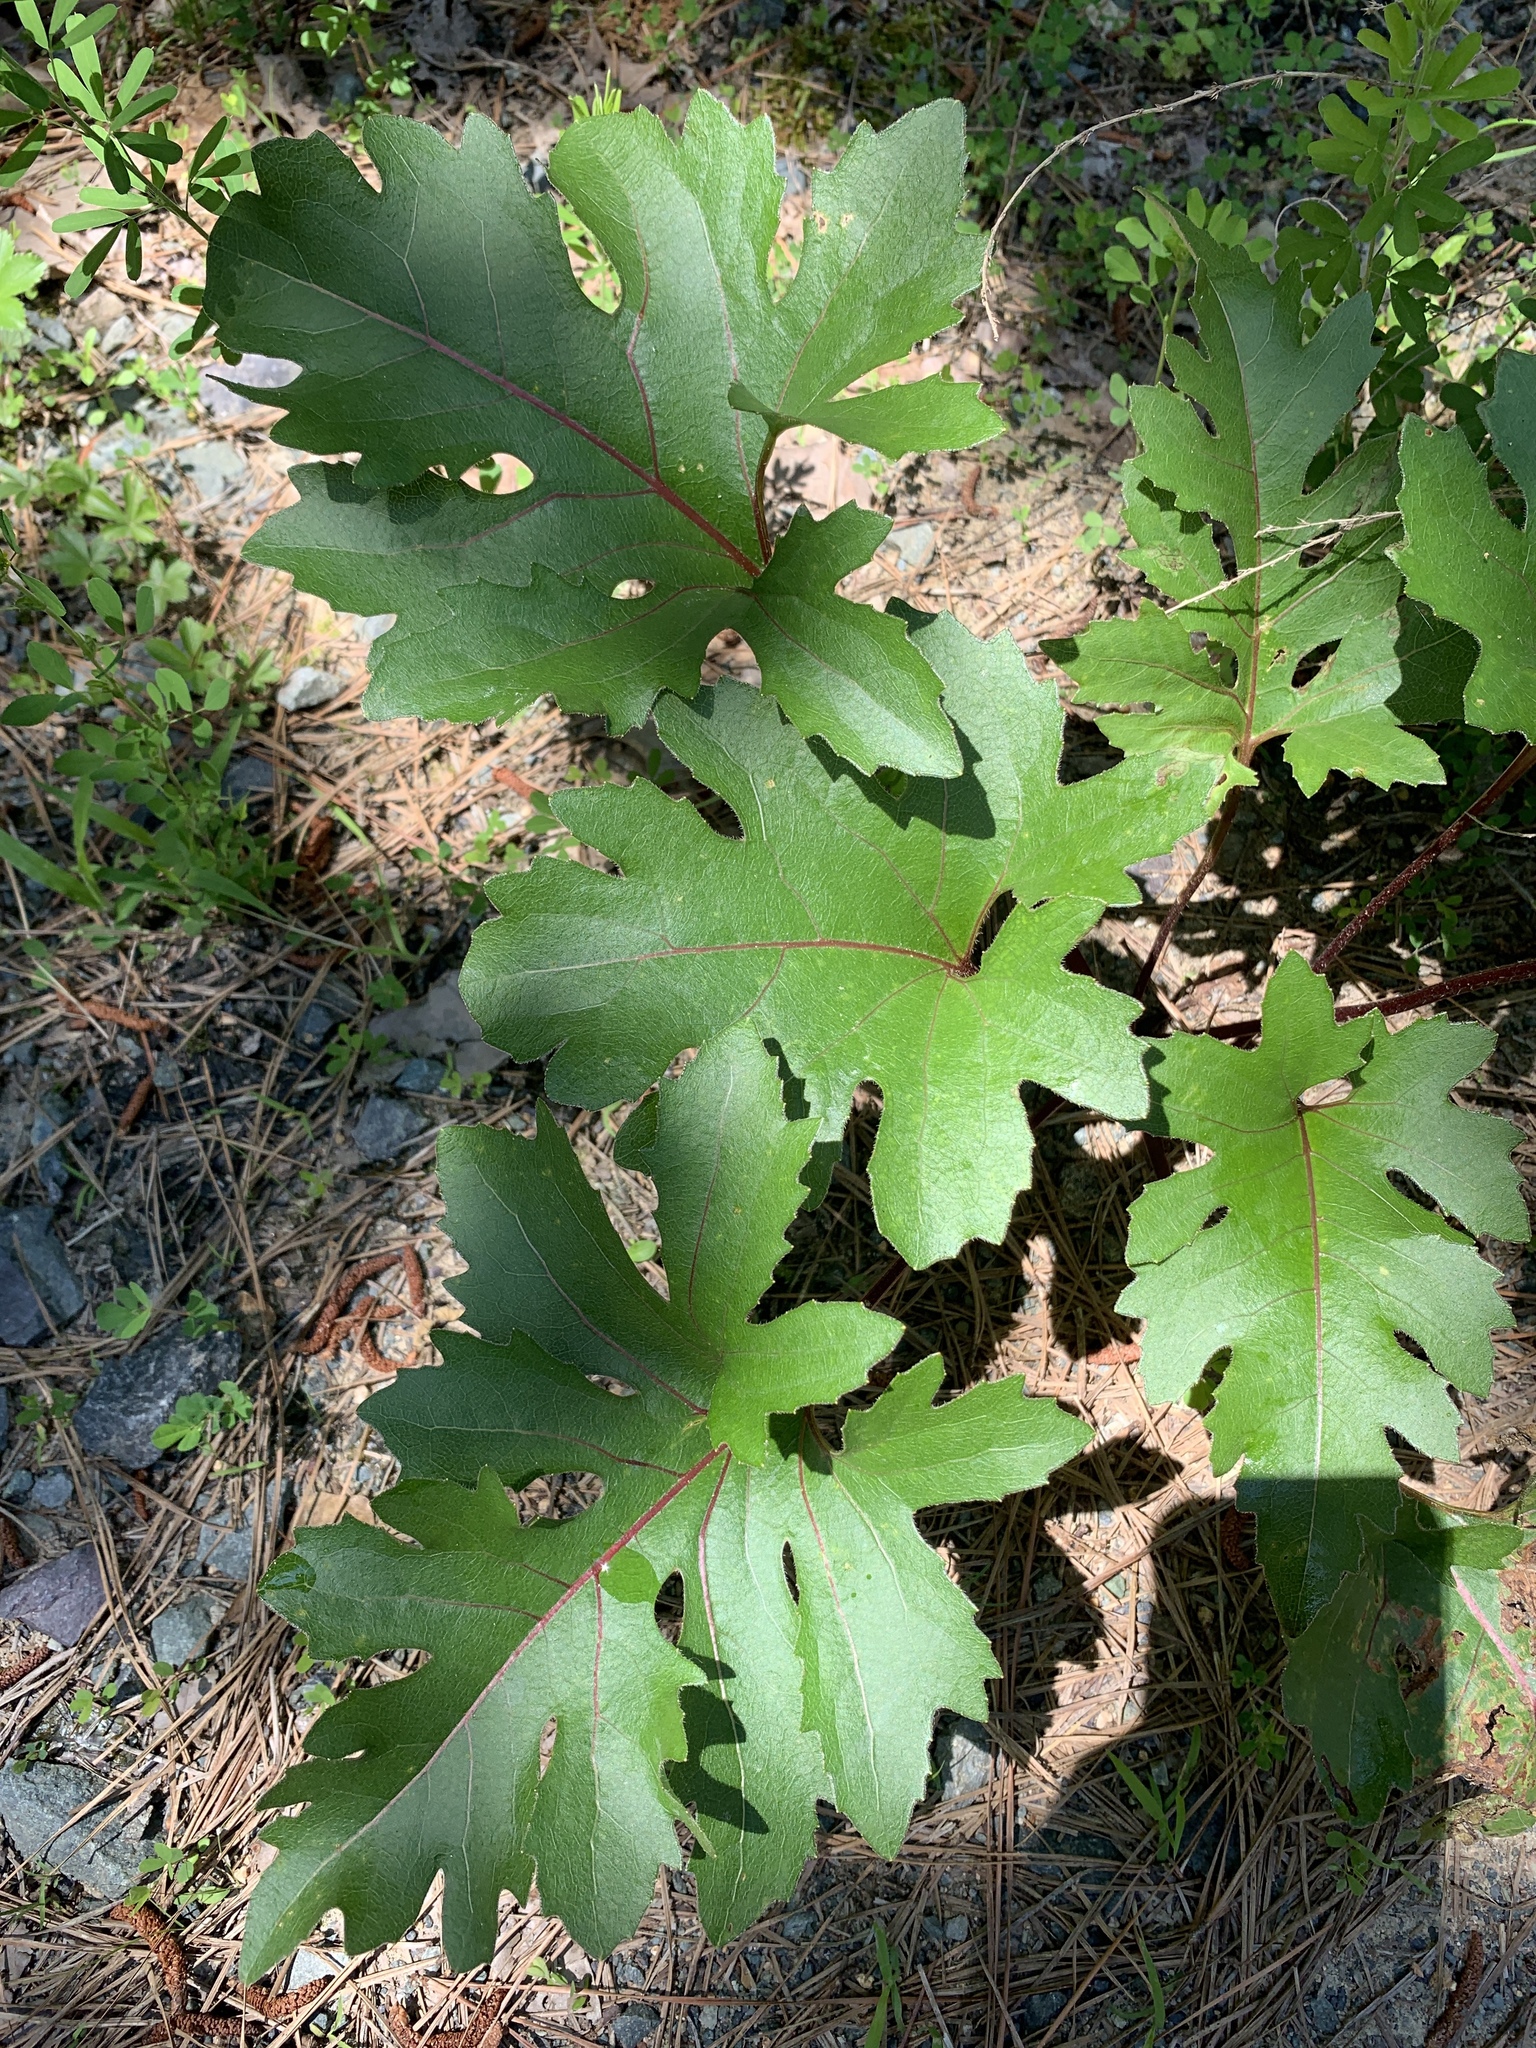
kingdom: Plantae
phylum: Tracheophyta
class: Magnoliopsida
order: Asterales
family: Asteraceae
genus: Silphium
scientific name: Silphium compositum
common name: Lesser basal-leaf rosinweed
